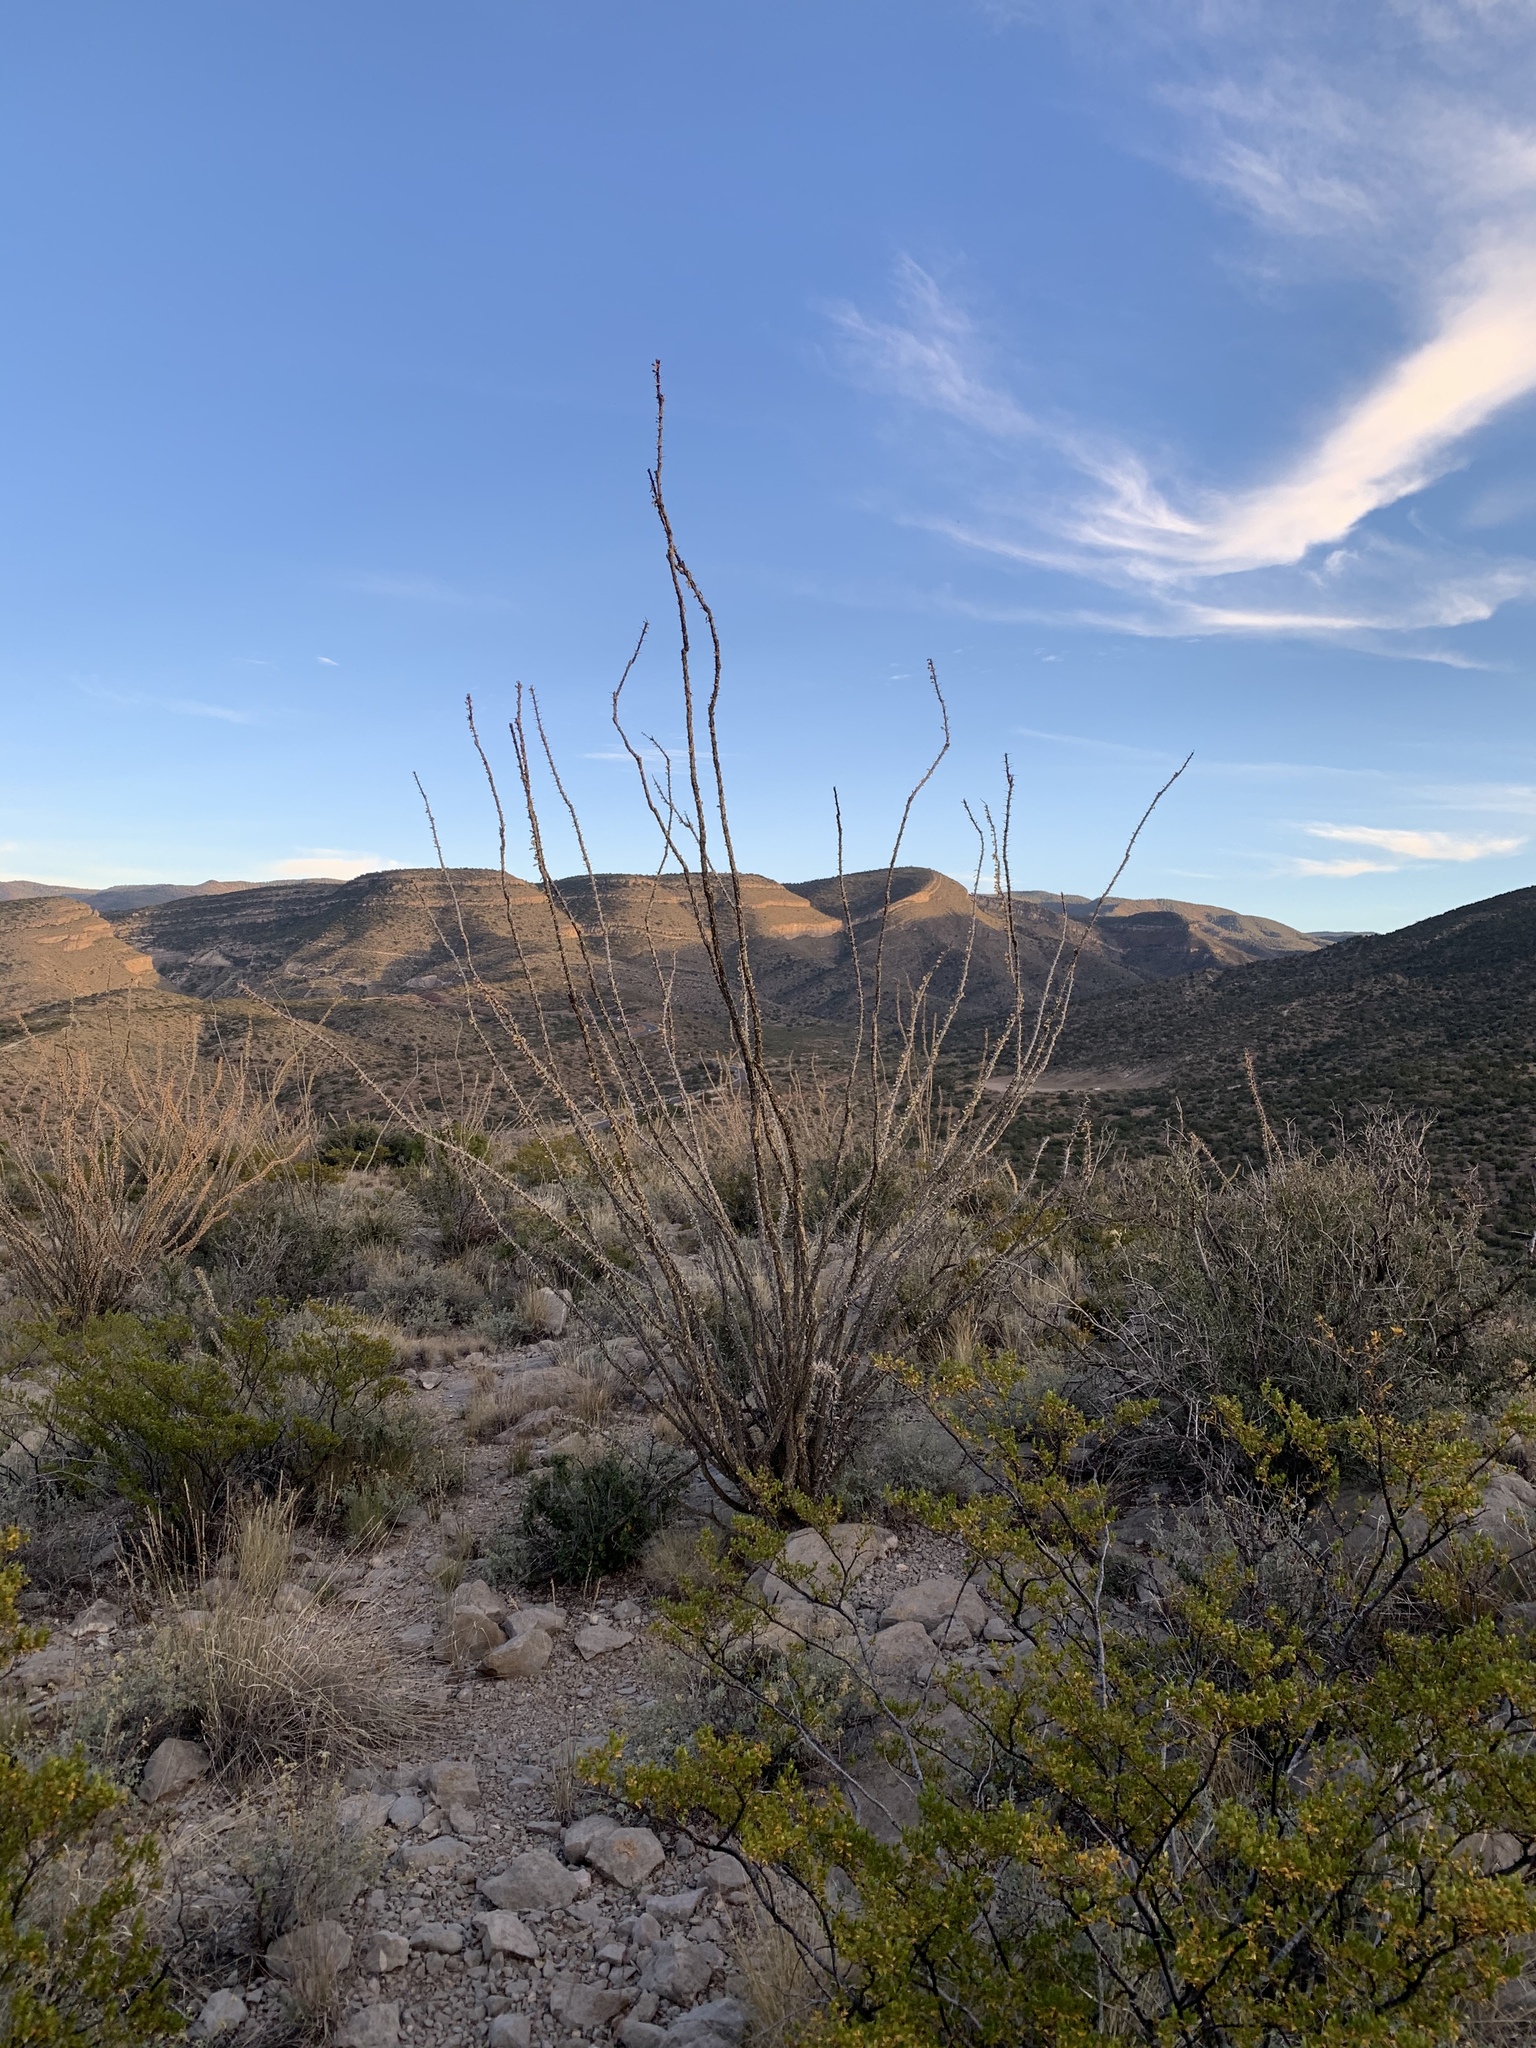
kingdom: Plantae
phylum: Tracheophyta
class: Magnoliopsida
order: Ericales
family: Fouquieriaceae
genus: Fouquieria
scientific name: Fouquieria splendens
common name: Vine-cactus
